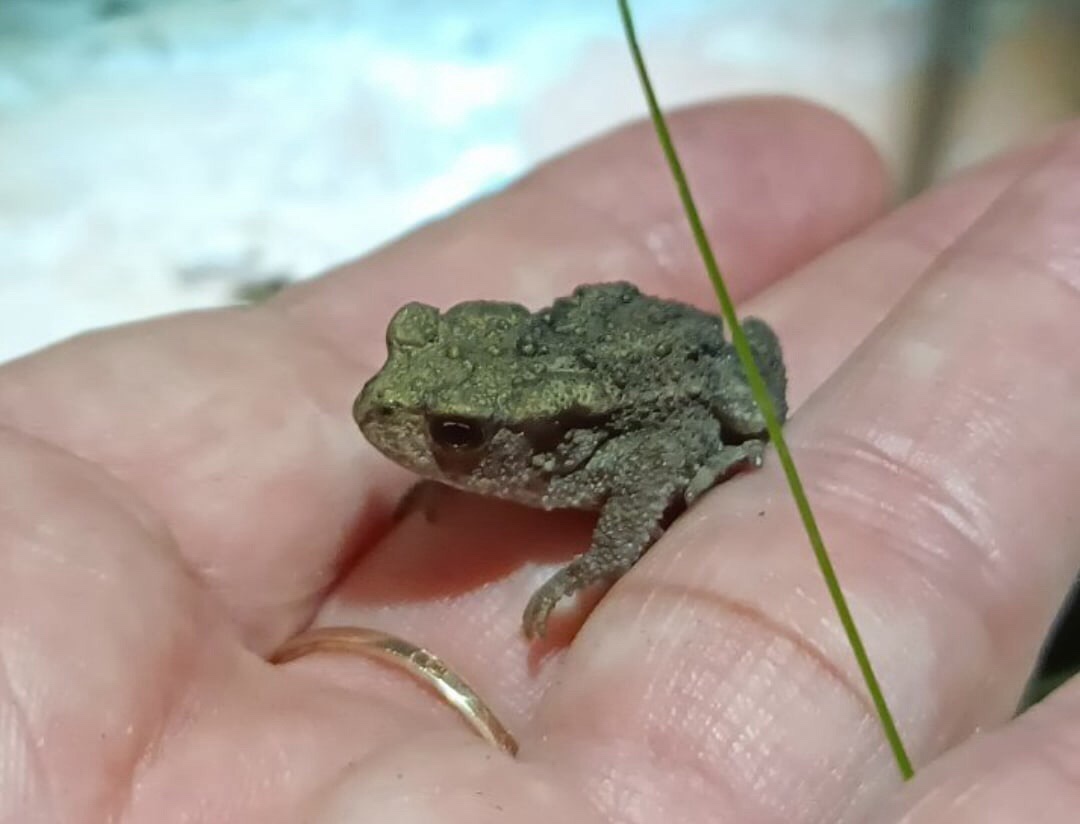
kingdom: Animalia
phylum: Chordata
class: Amphibia
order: Anura
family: Bufonidae
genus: Bufo
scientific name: Bufo bufo
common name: Common toad
